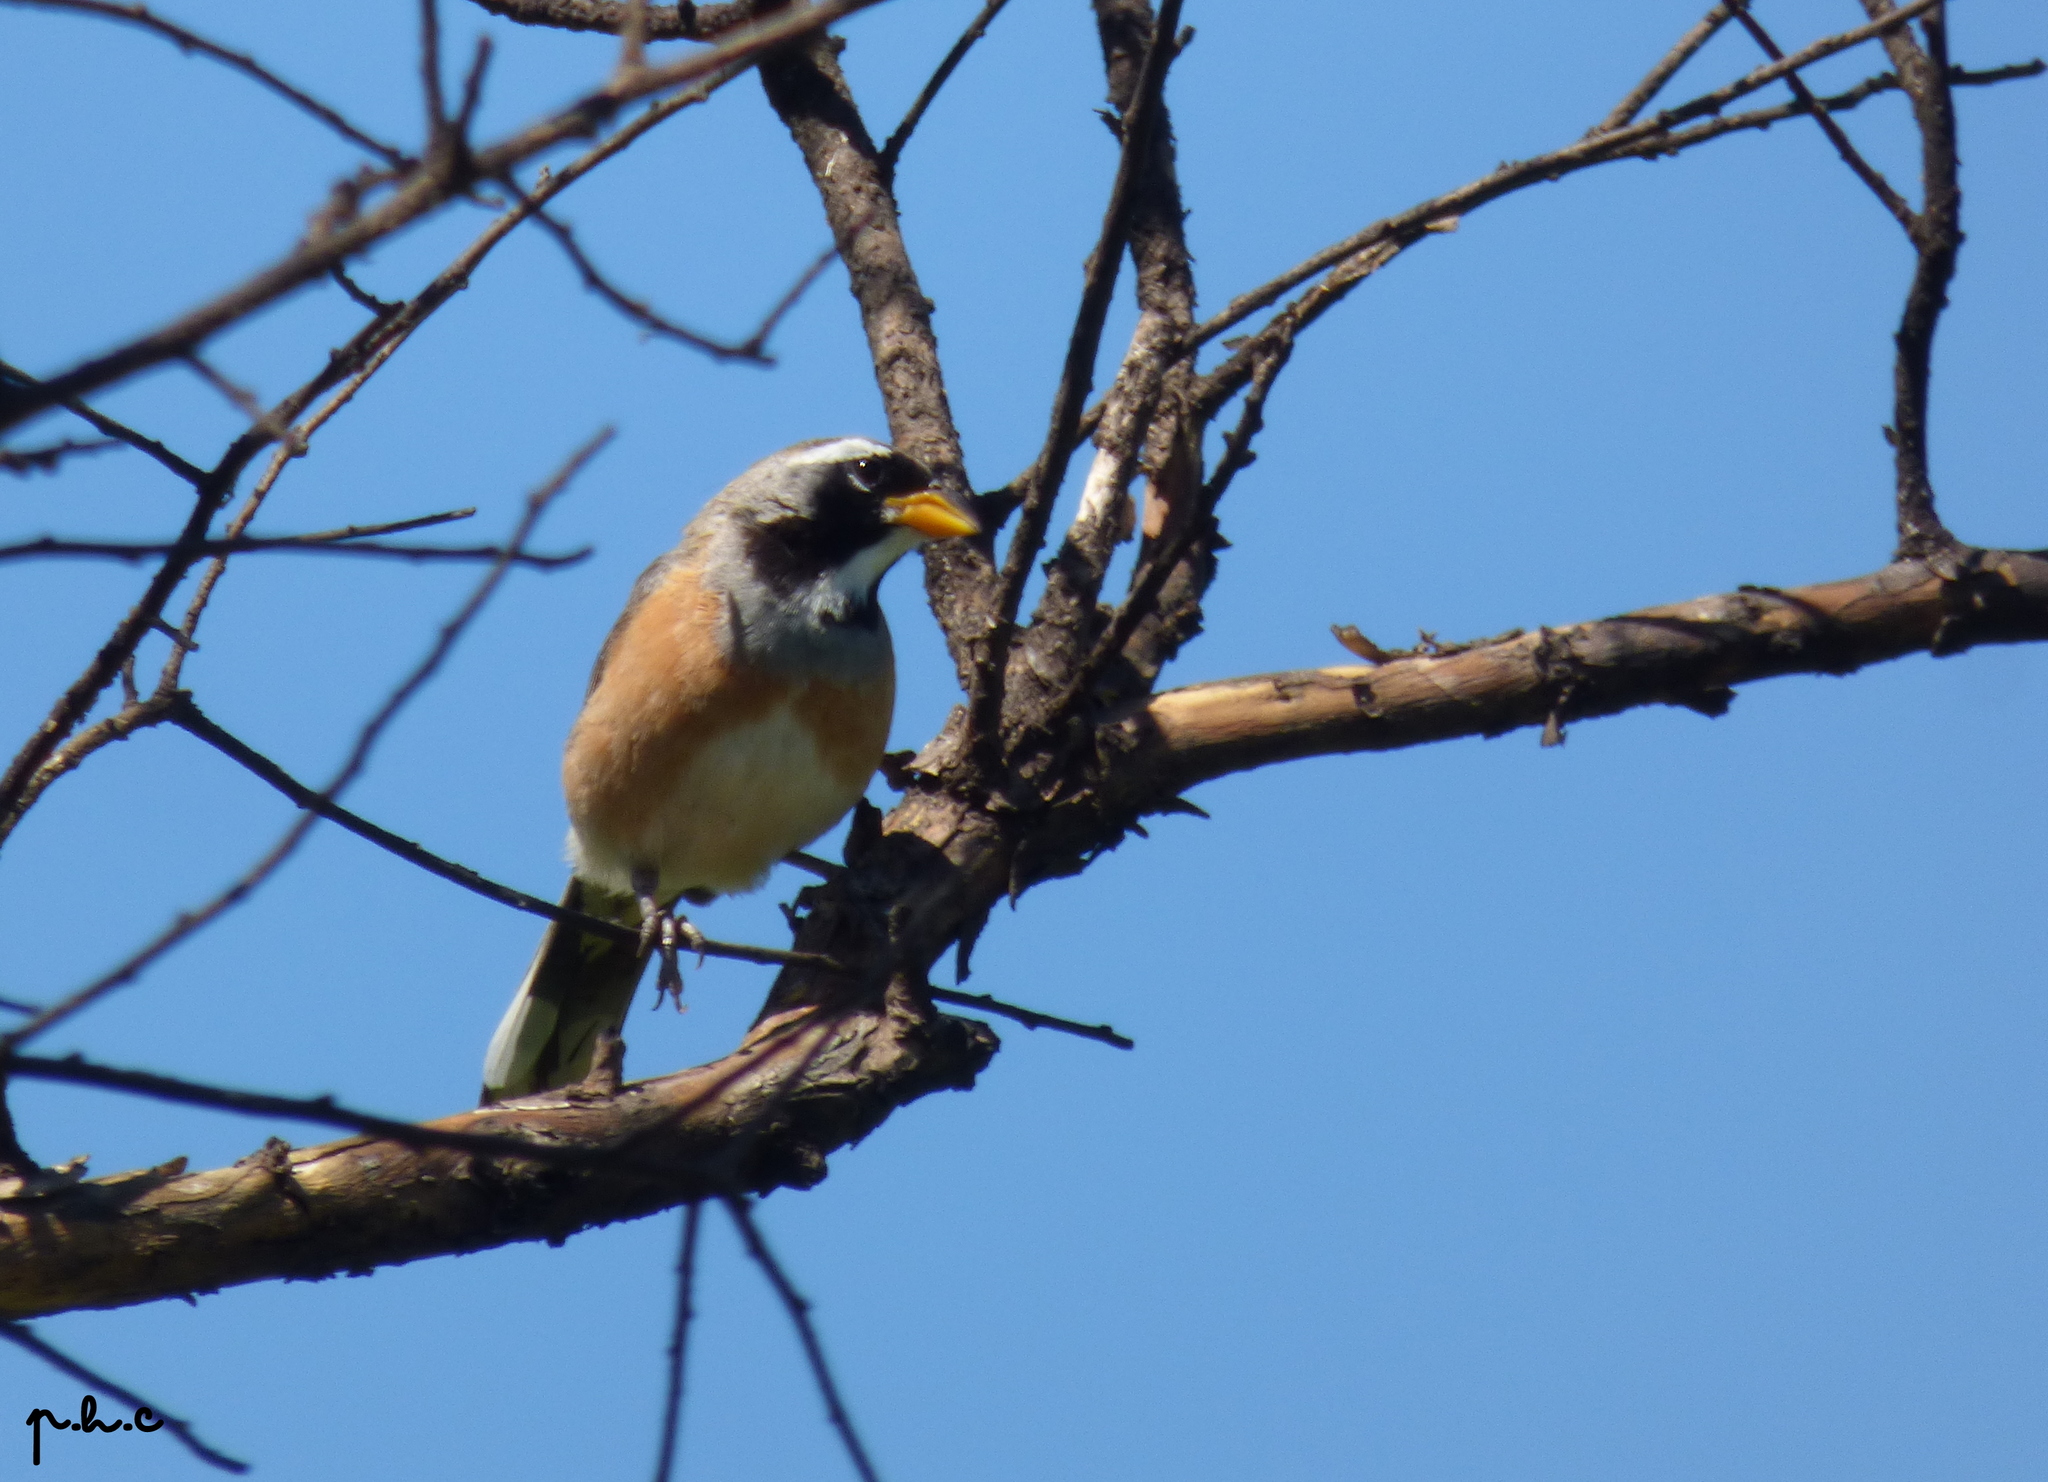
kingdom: Animalia
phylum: Chordata
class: Aves
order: Passeriformes
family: Thraupidae
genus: Saltatricula
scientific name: Saltatricula multicolor
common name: Many-colored chaco finch
